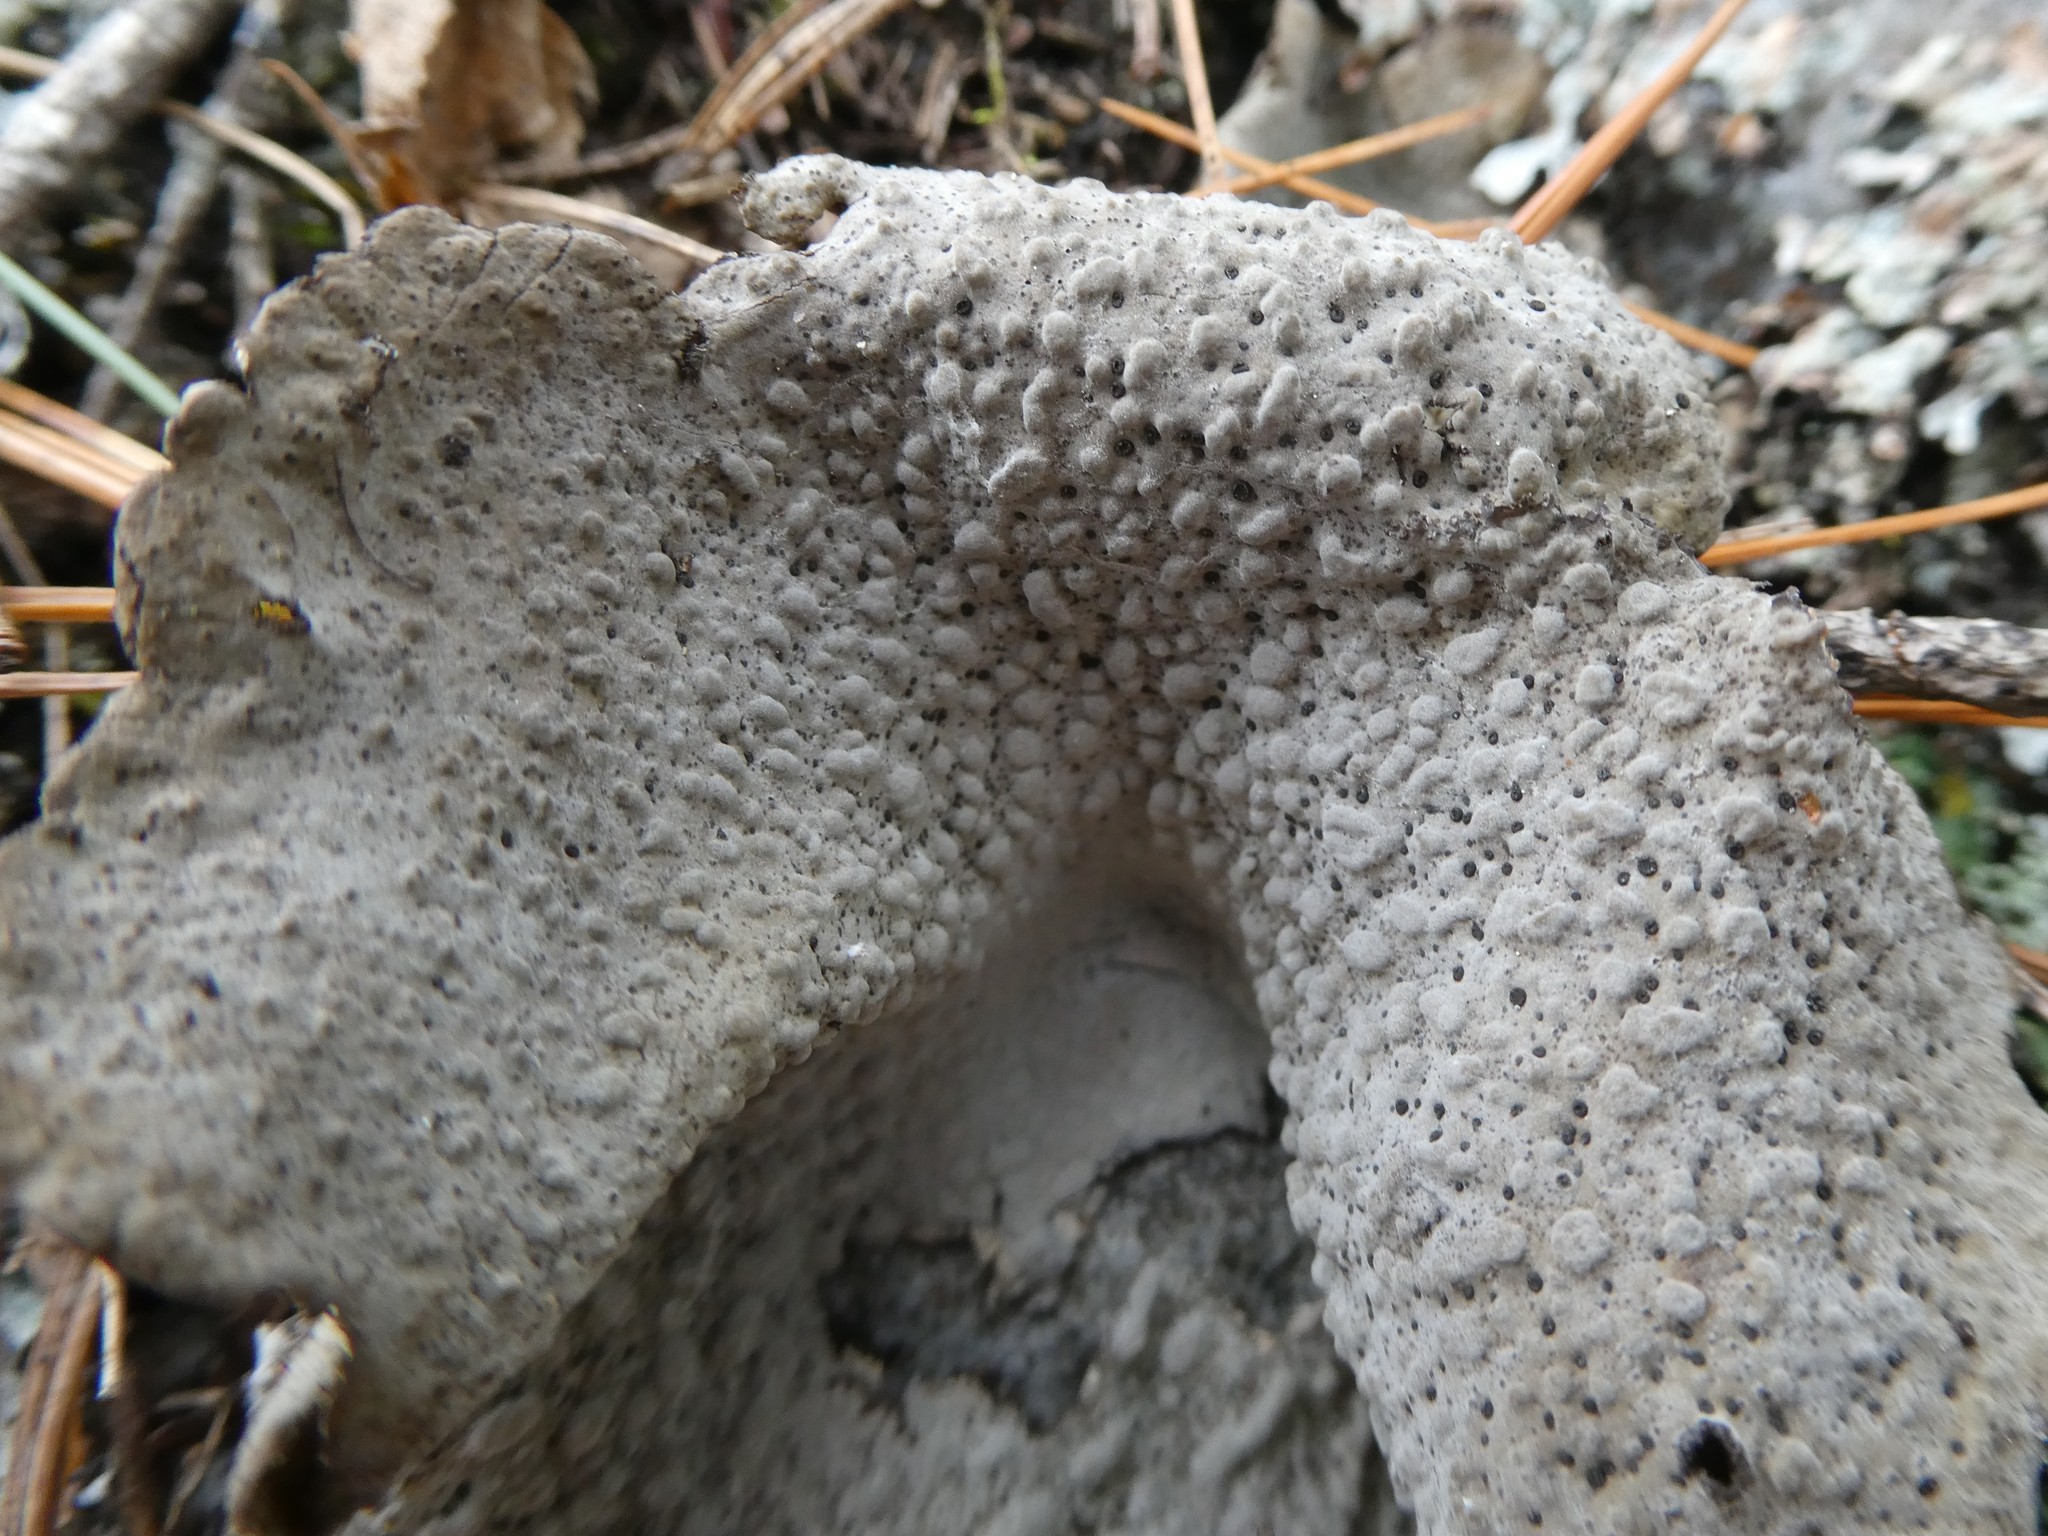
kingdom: Fungi
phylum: Ascomycota
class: Lecanoromycetes
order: Umbilicariales
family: Umbilicariaceae
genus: Lasallia
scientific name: Lasallia papulosa
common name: Common toadskin lichen
